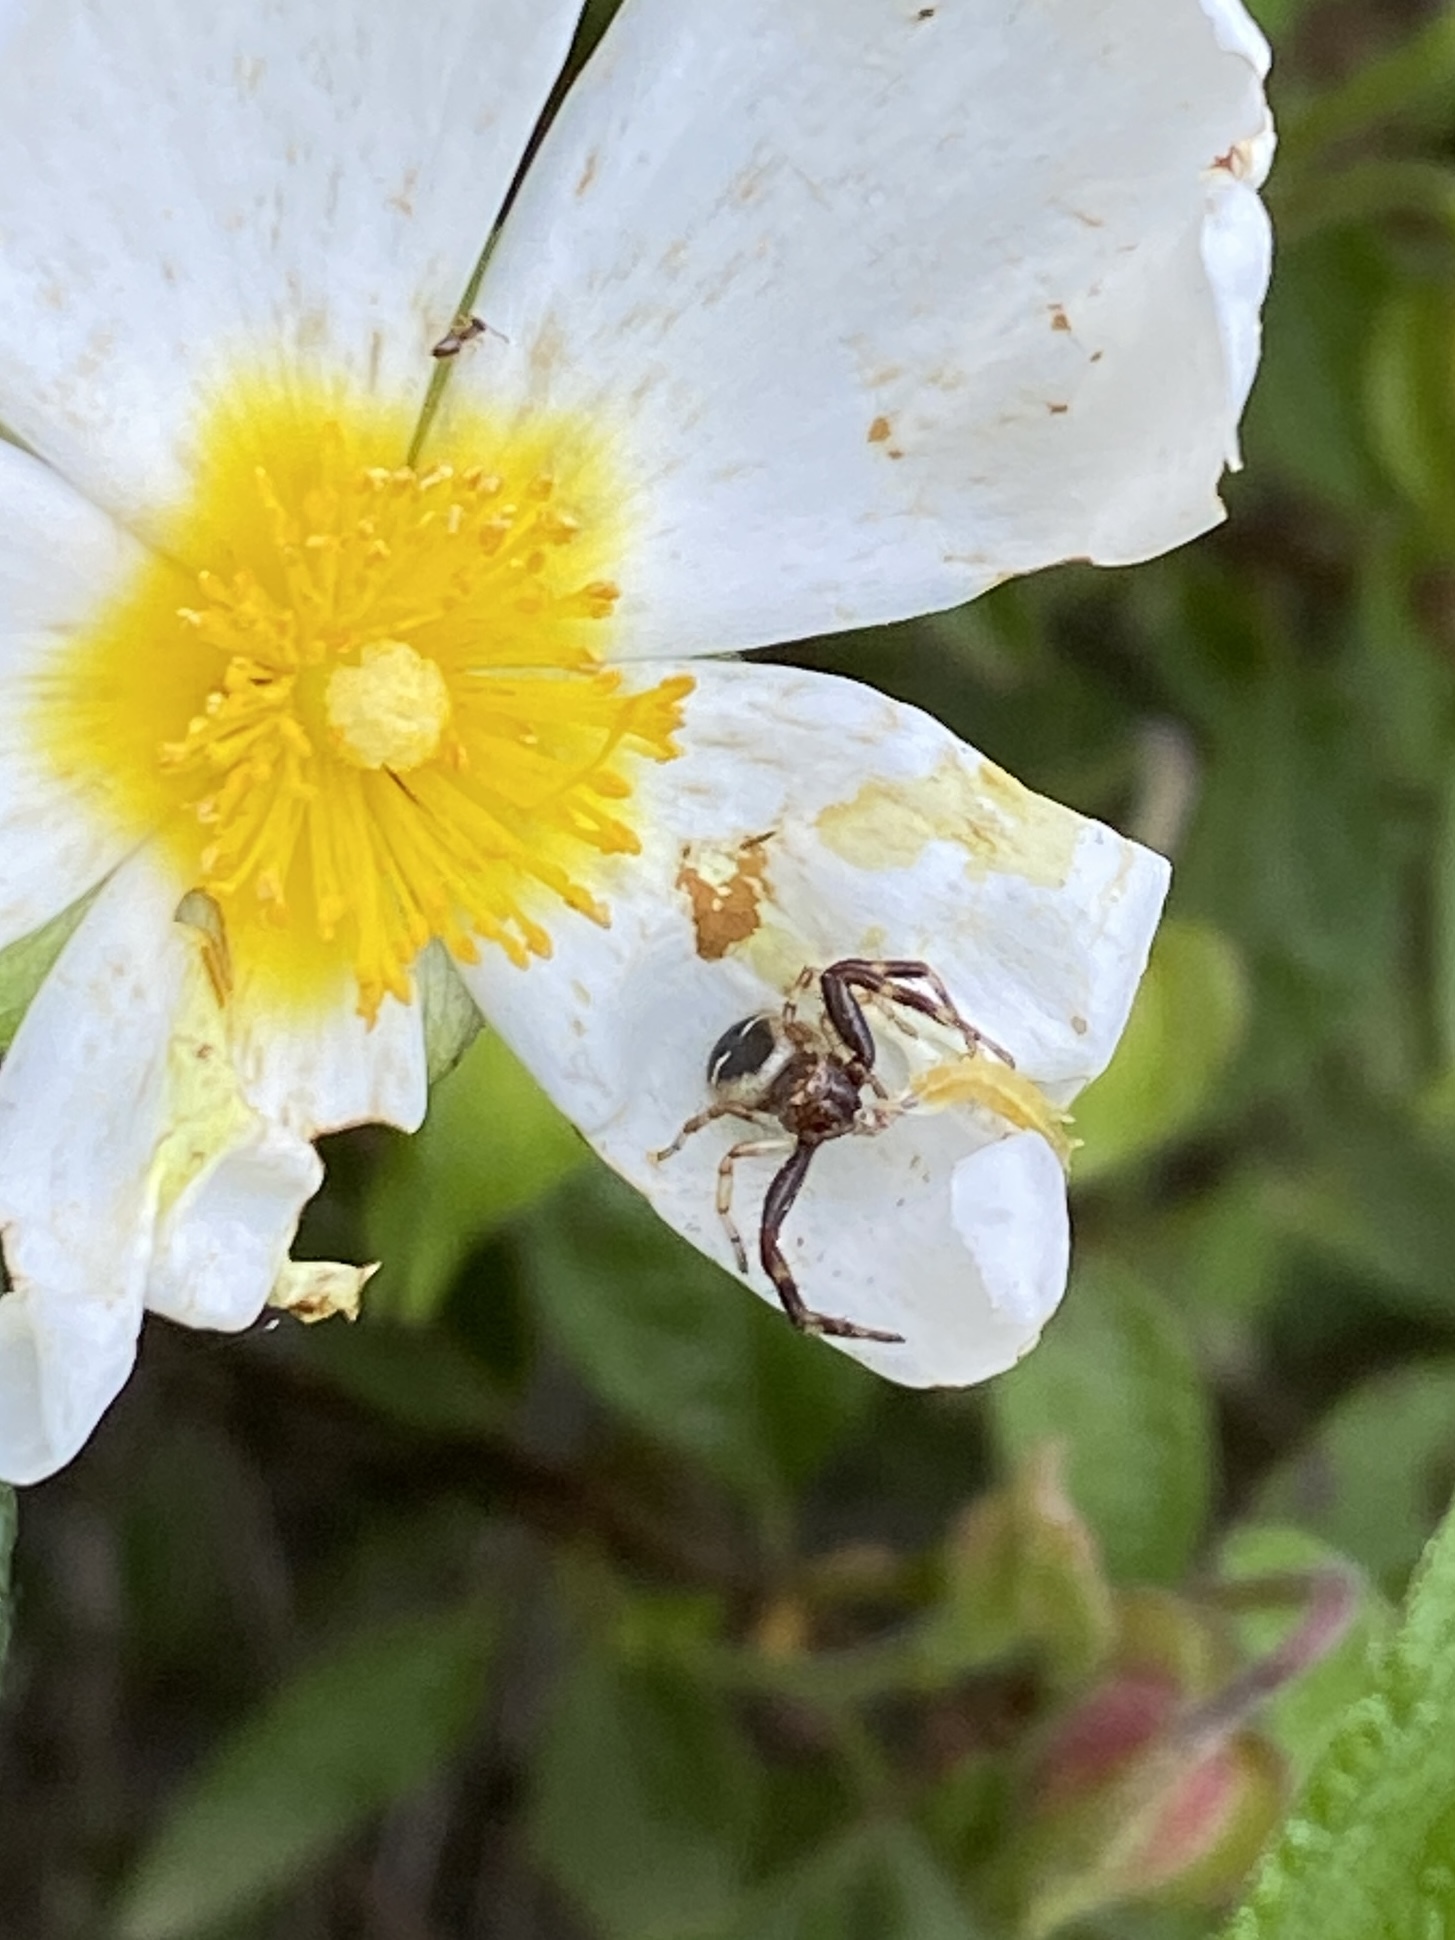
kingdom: Animalia
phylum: Arthropoda
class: Arachnida
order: Araneae
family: Thomisidae
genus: Synema
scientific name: Synema globosum
